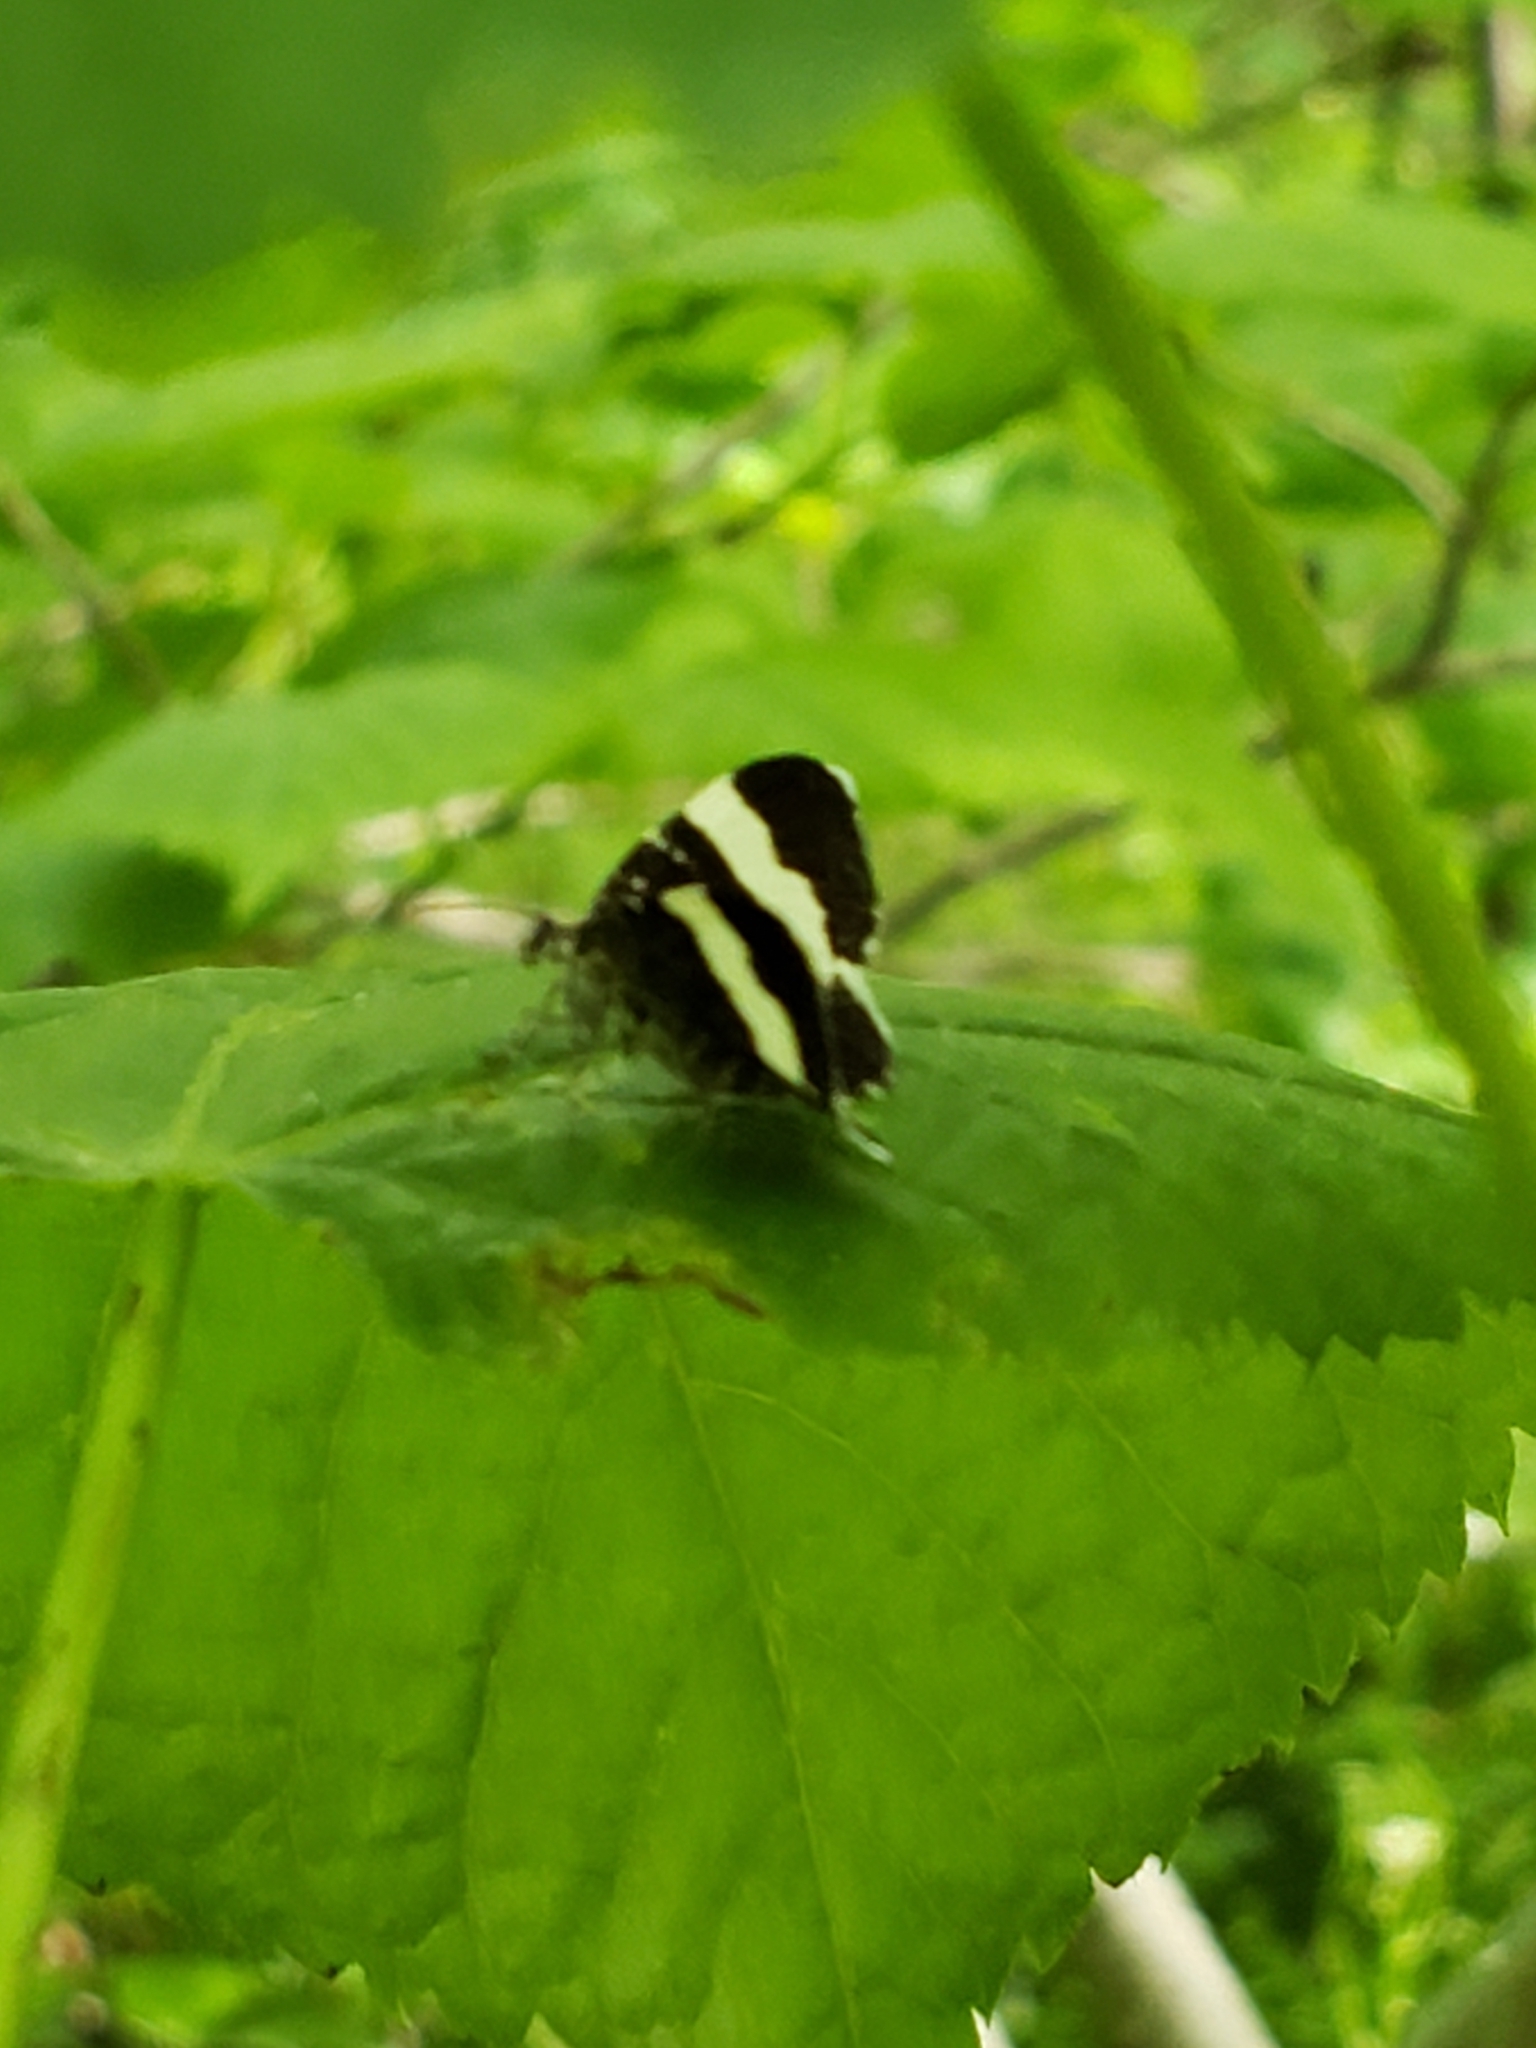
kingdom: Animalia
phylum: Arthropoda
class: Insecta
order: Lepidoptera
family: Geometridae
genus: Trichodezia
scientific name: Trichodezia albovittata
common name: White striped black
